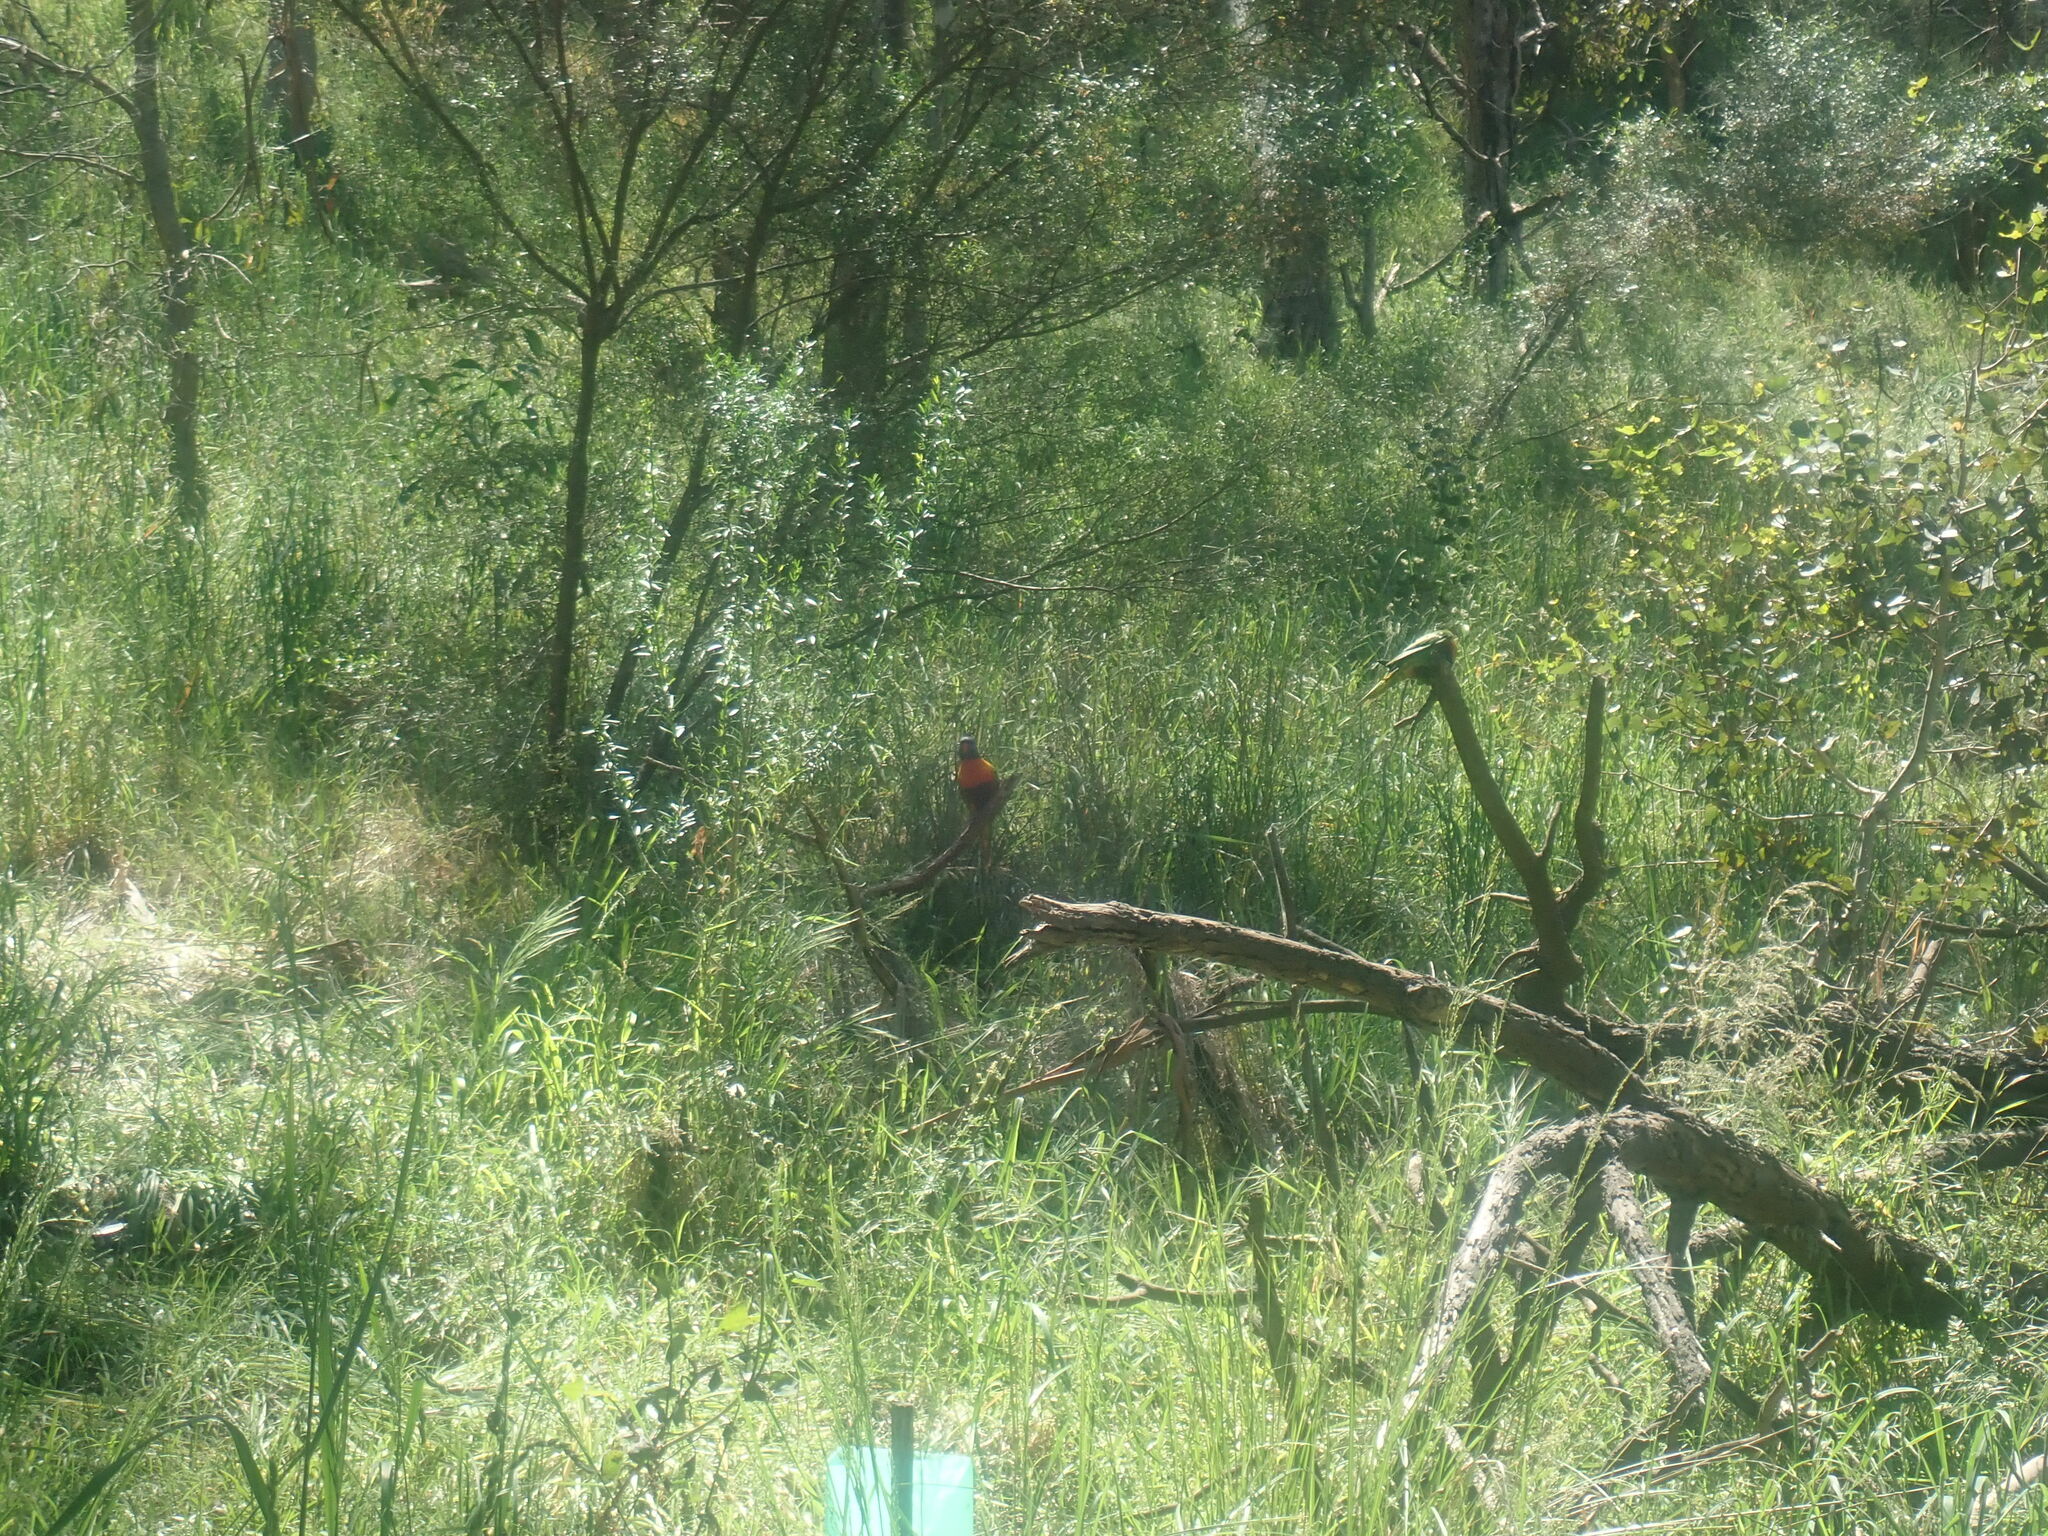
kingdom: Animalia
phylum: Chordata
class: Aves
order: Psittaciformes
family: Psittacidae
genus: Trichoglossus
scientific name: Trichoglossus haematodus
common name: Coconut lorikeet
